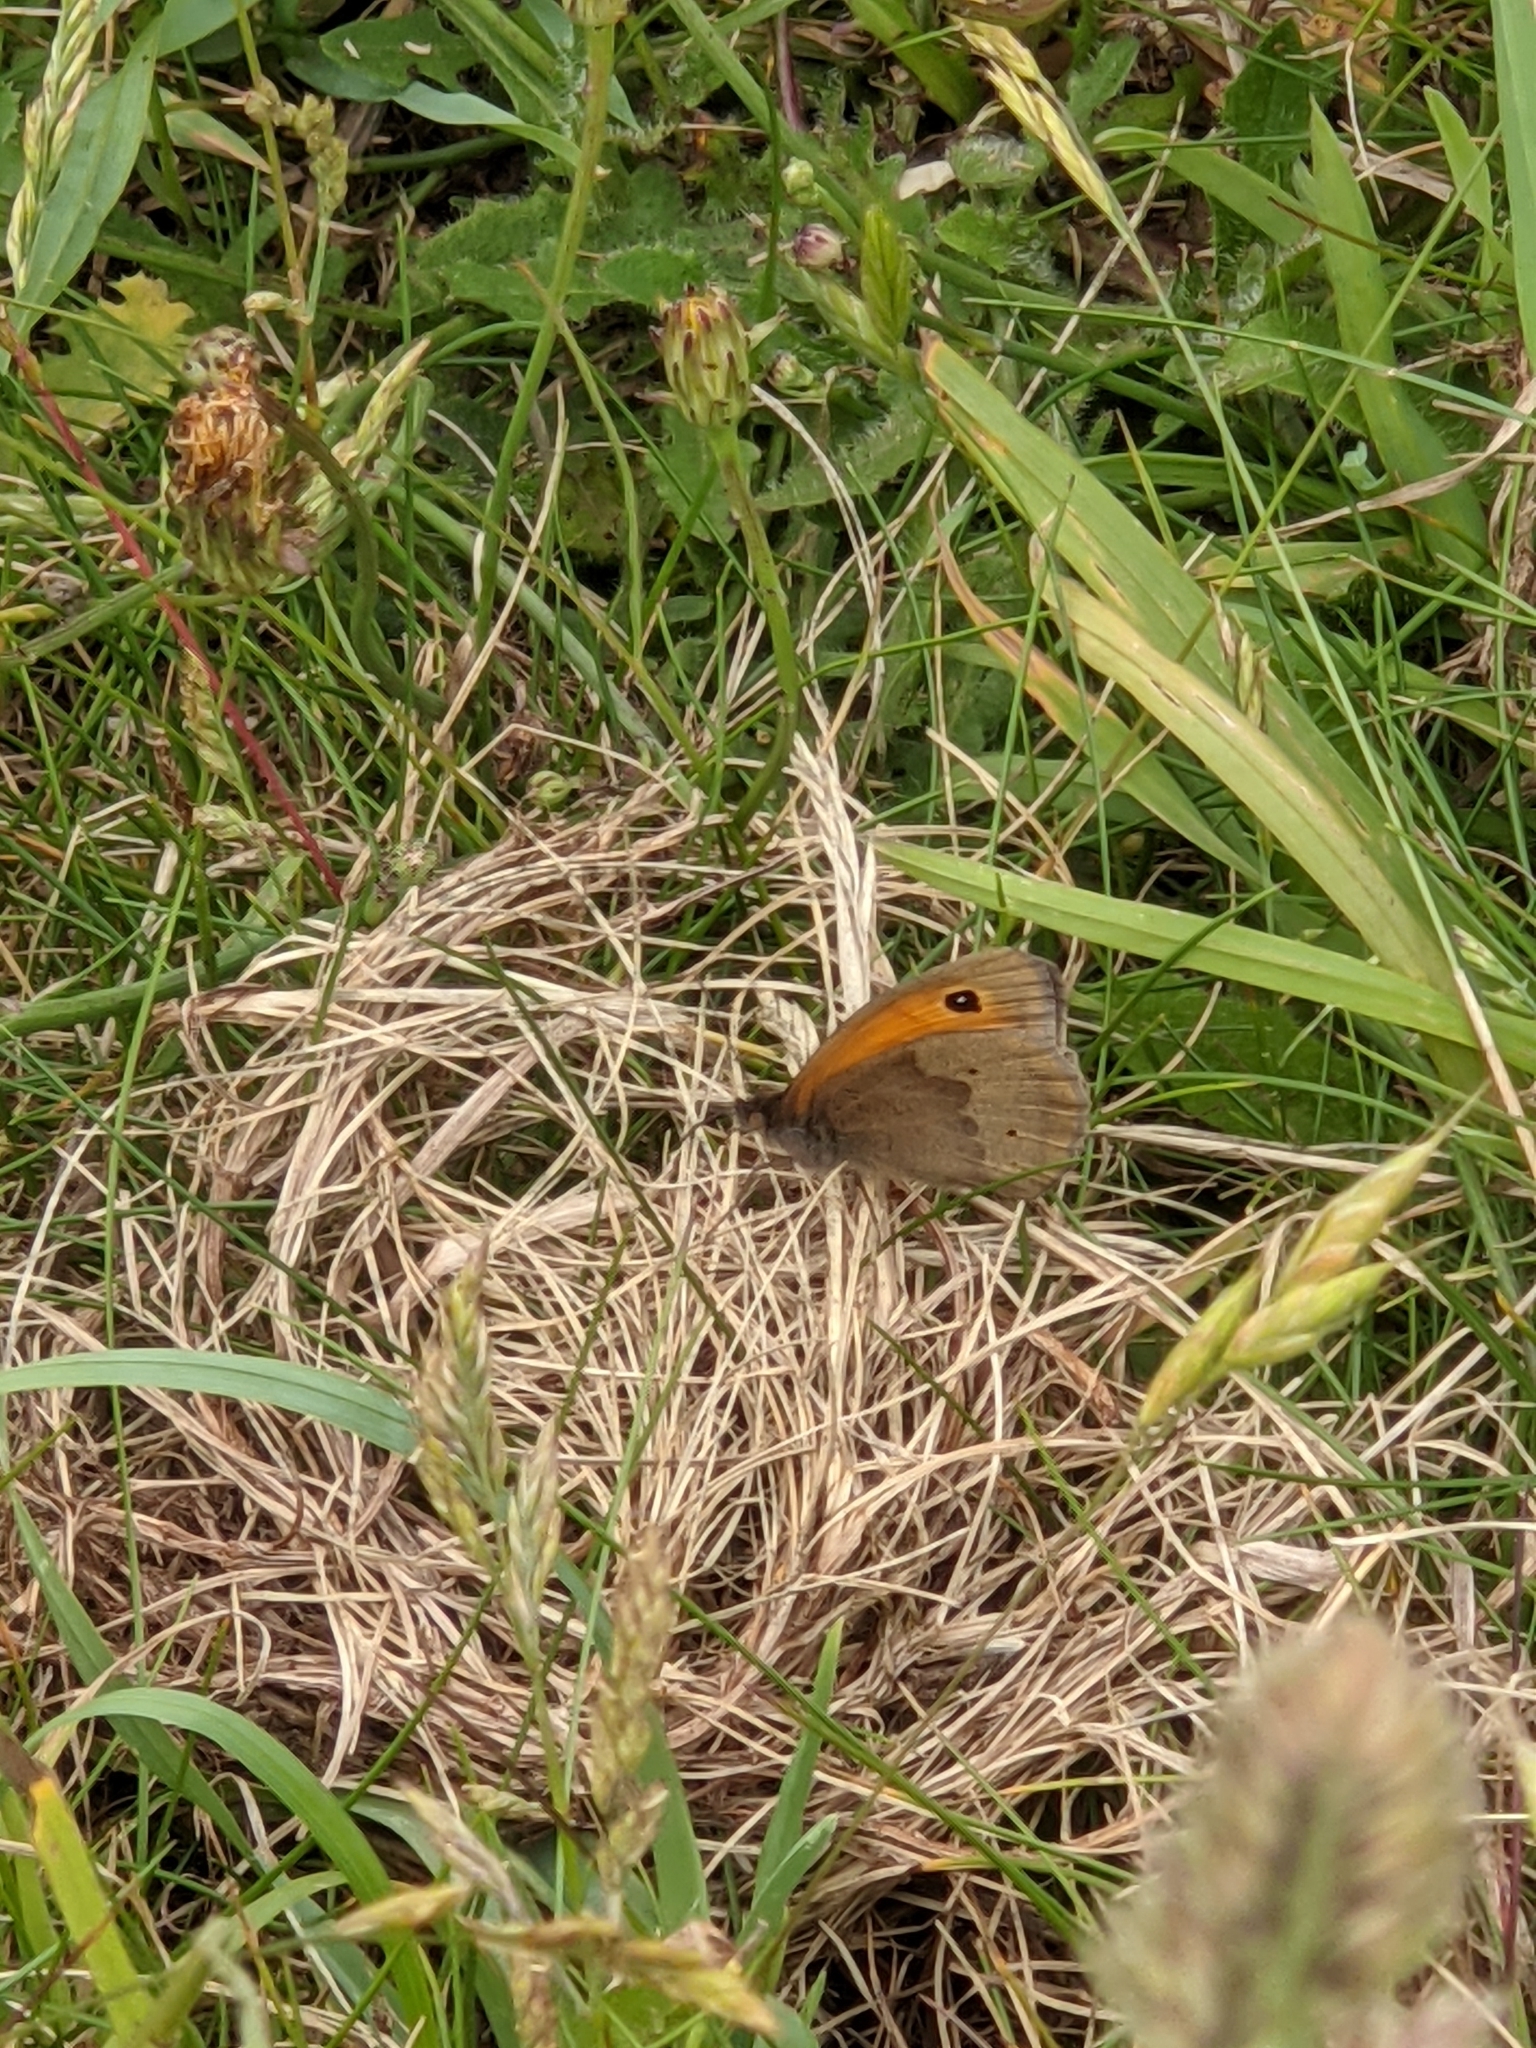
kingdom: Animalia
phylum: Arthropoda
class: Insecta
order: Lepidoptera
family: Nymphalidae
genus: Maniola
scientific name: Maniola jurtina
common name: Meadow brown
